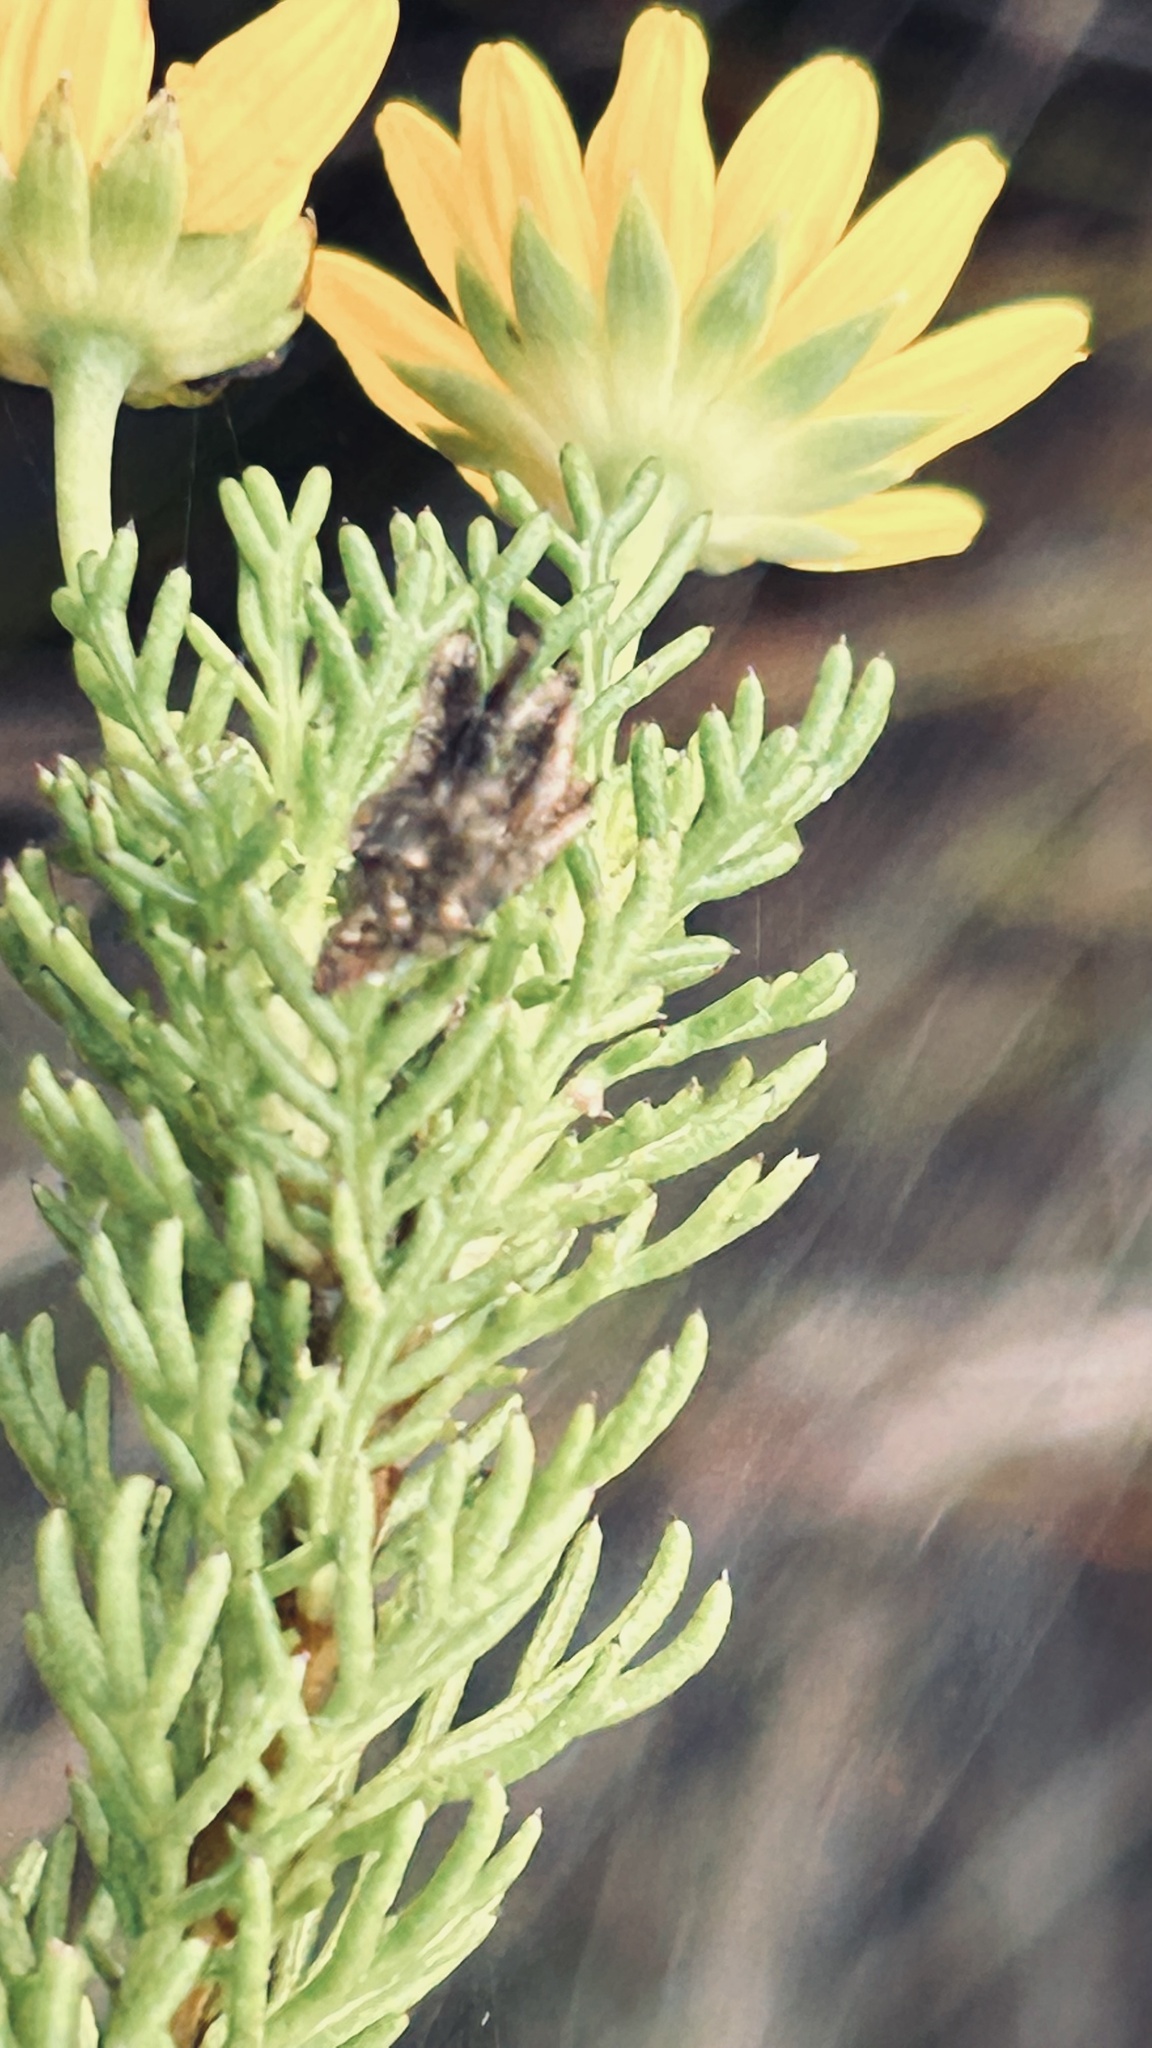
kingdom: Plantae
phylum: Tracheophyta
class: Magnoliopsida
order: Asterales
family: Asteraceae
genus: Euryops
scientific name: Euryops pinnatipartitus
